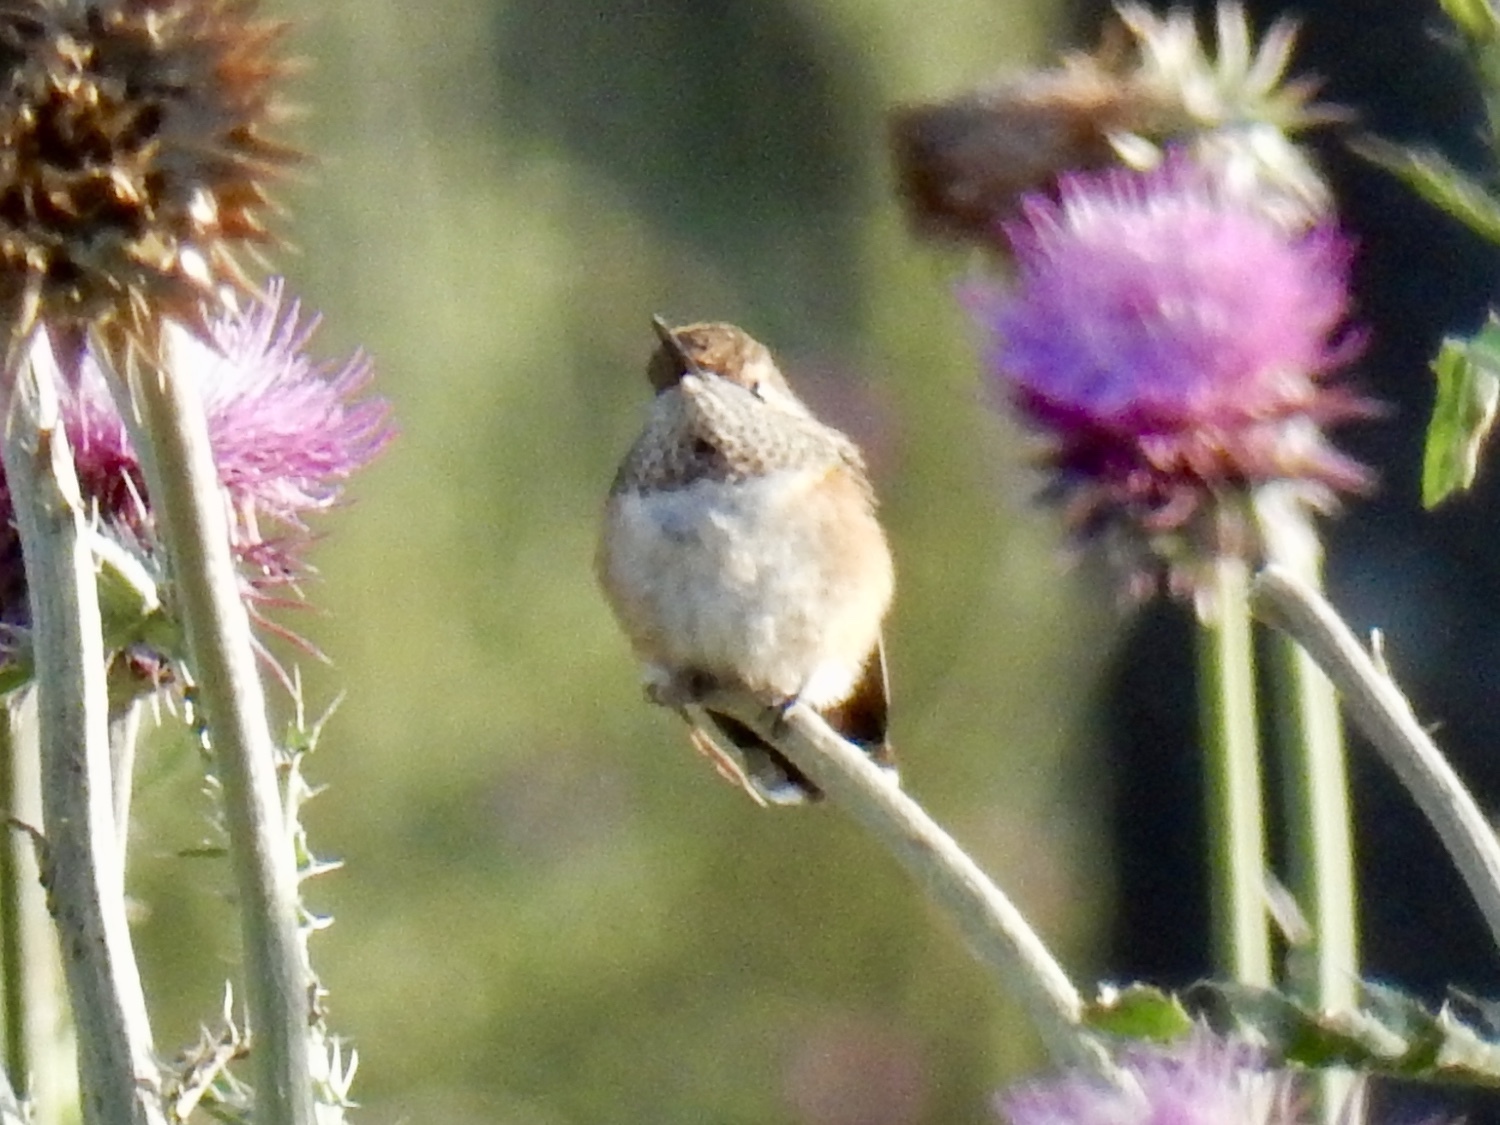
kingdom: Animalia
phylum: Chordata
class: Aves
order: Apodiformes
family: Trochilidae
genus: Selasphorus
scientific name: Selasphorus rufus
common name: Rufous hummingbird
